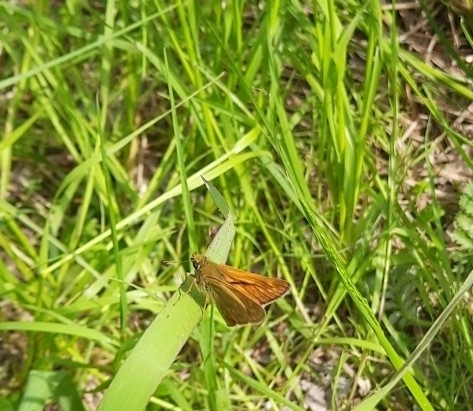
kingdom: Animalia
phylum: Arthropoda
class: Insecta
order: Lepidoptera
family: Hesperiidae
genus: Ochlodes
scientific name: Ochlodes venata
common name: Large skipper
